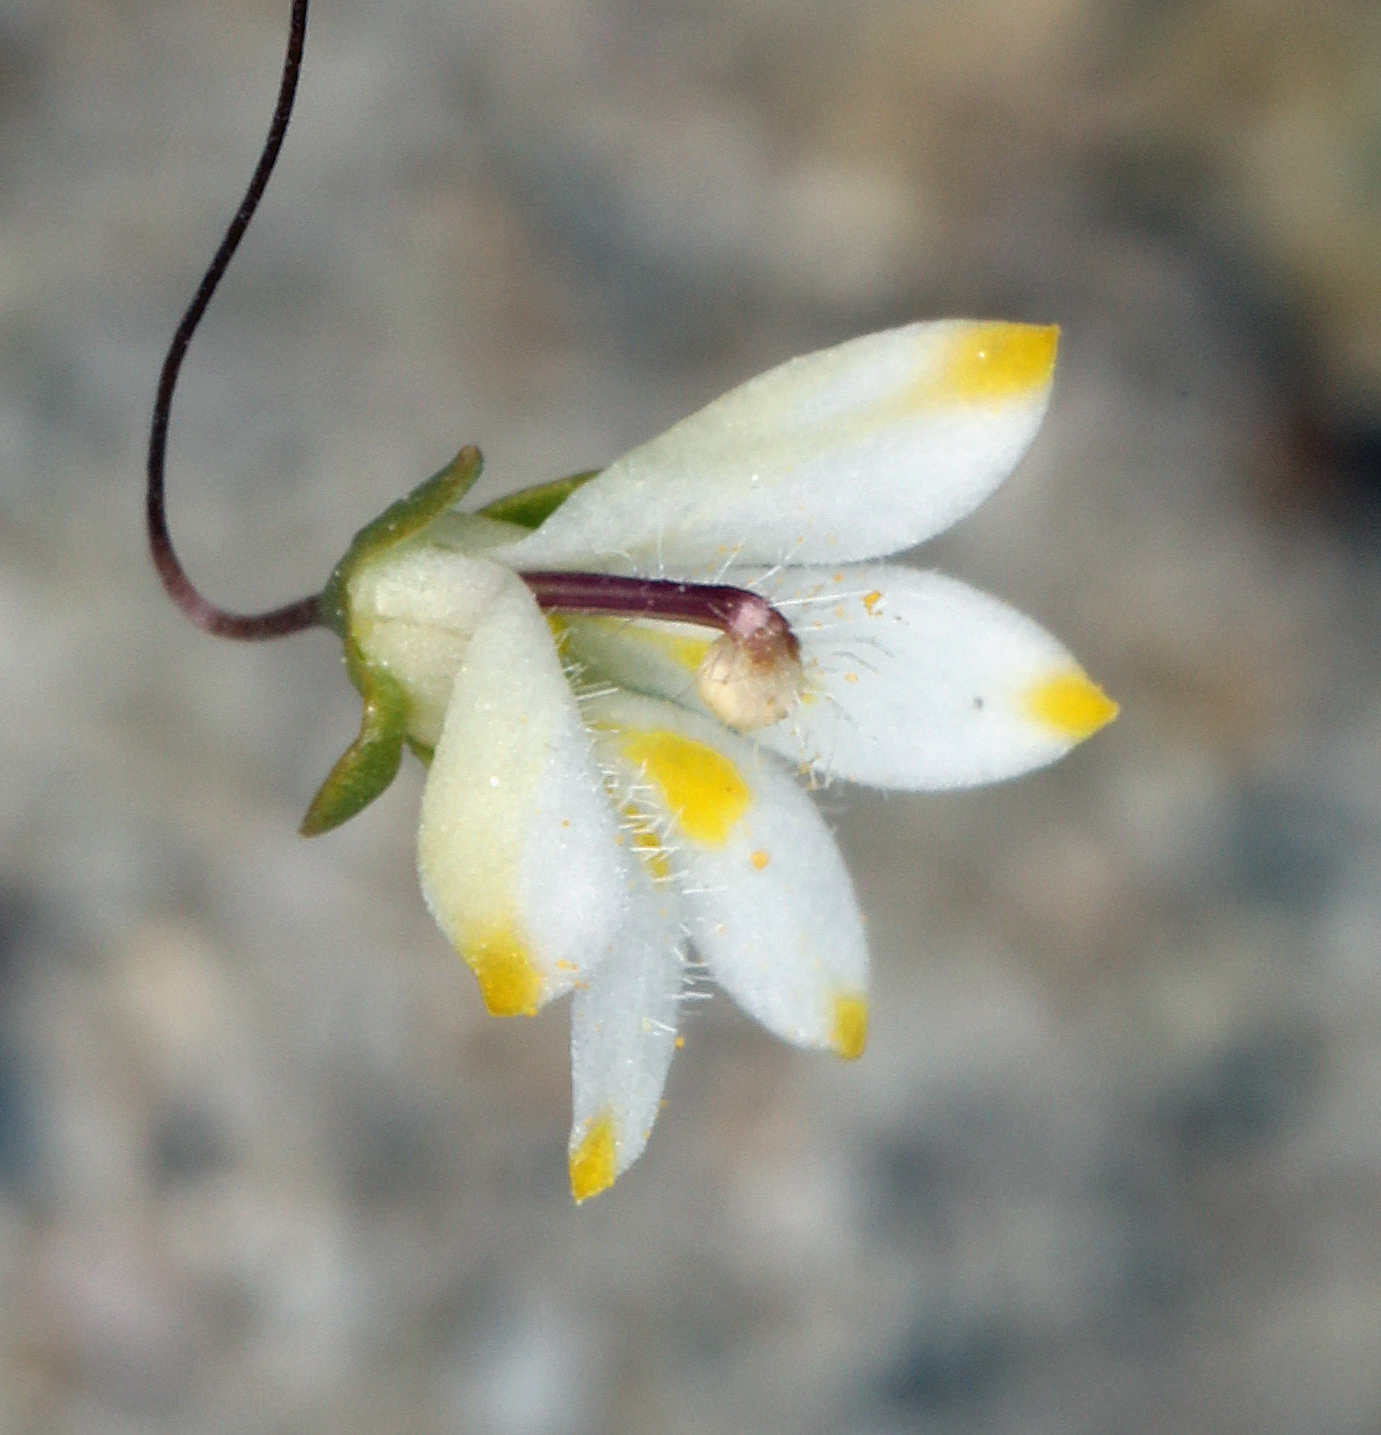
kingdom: Plantae
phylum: Tracheophyta
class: Magnoliopsida
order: Asterales
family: Campanulaceae
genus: Nemacladus
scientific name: Nemacladus matsonii
